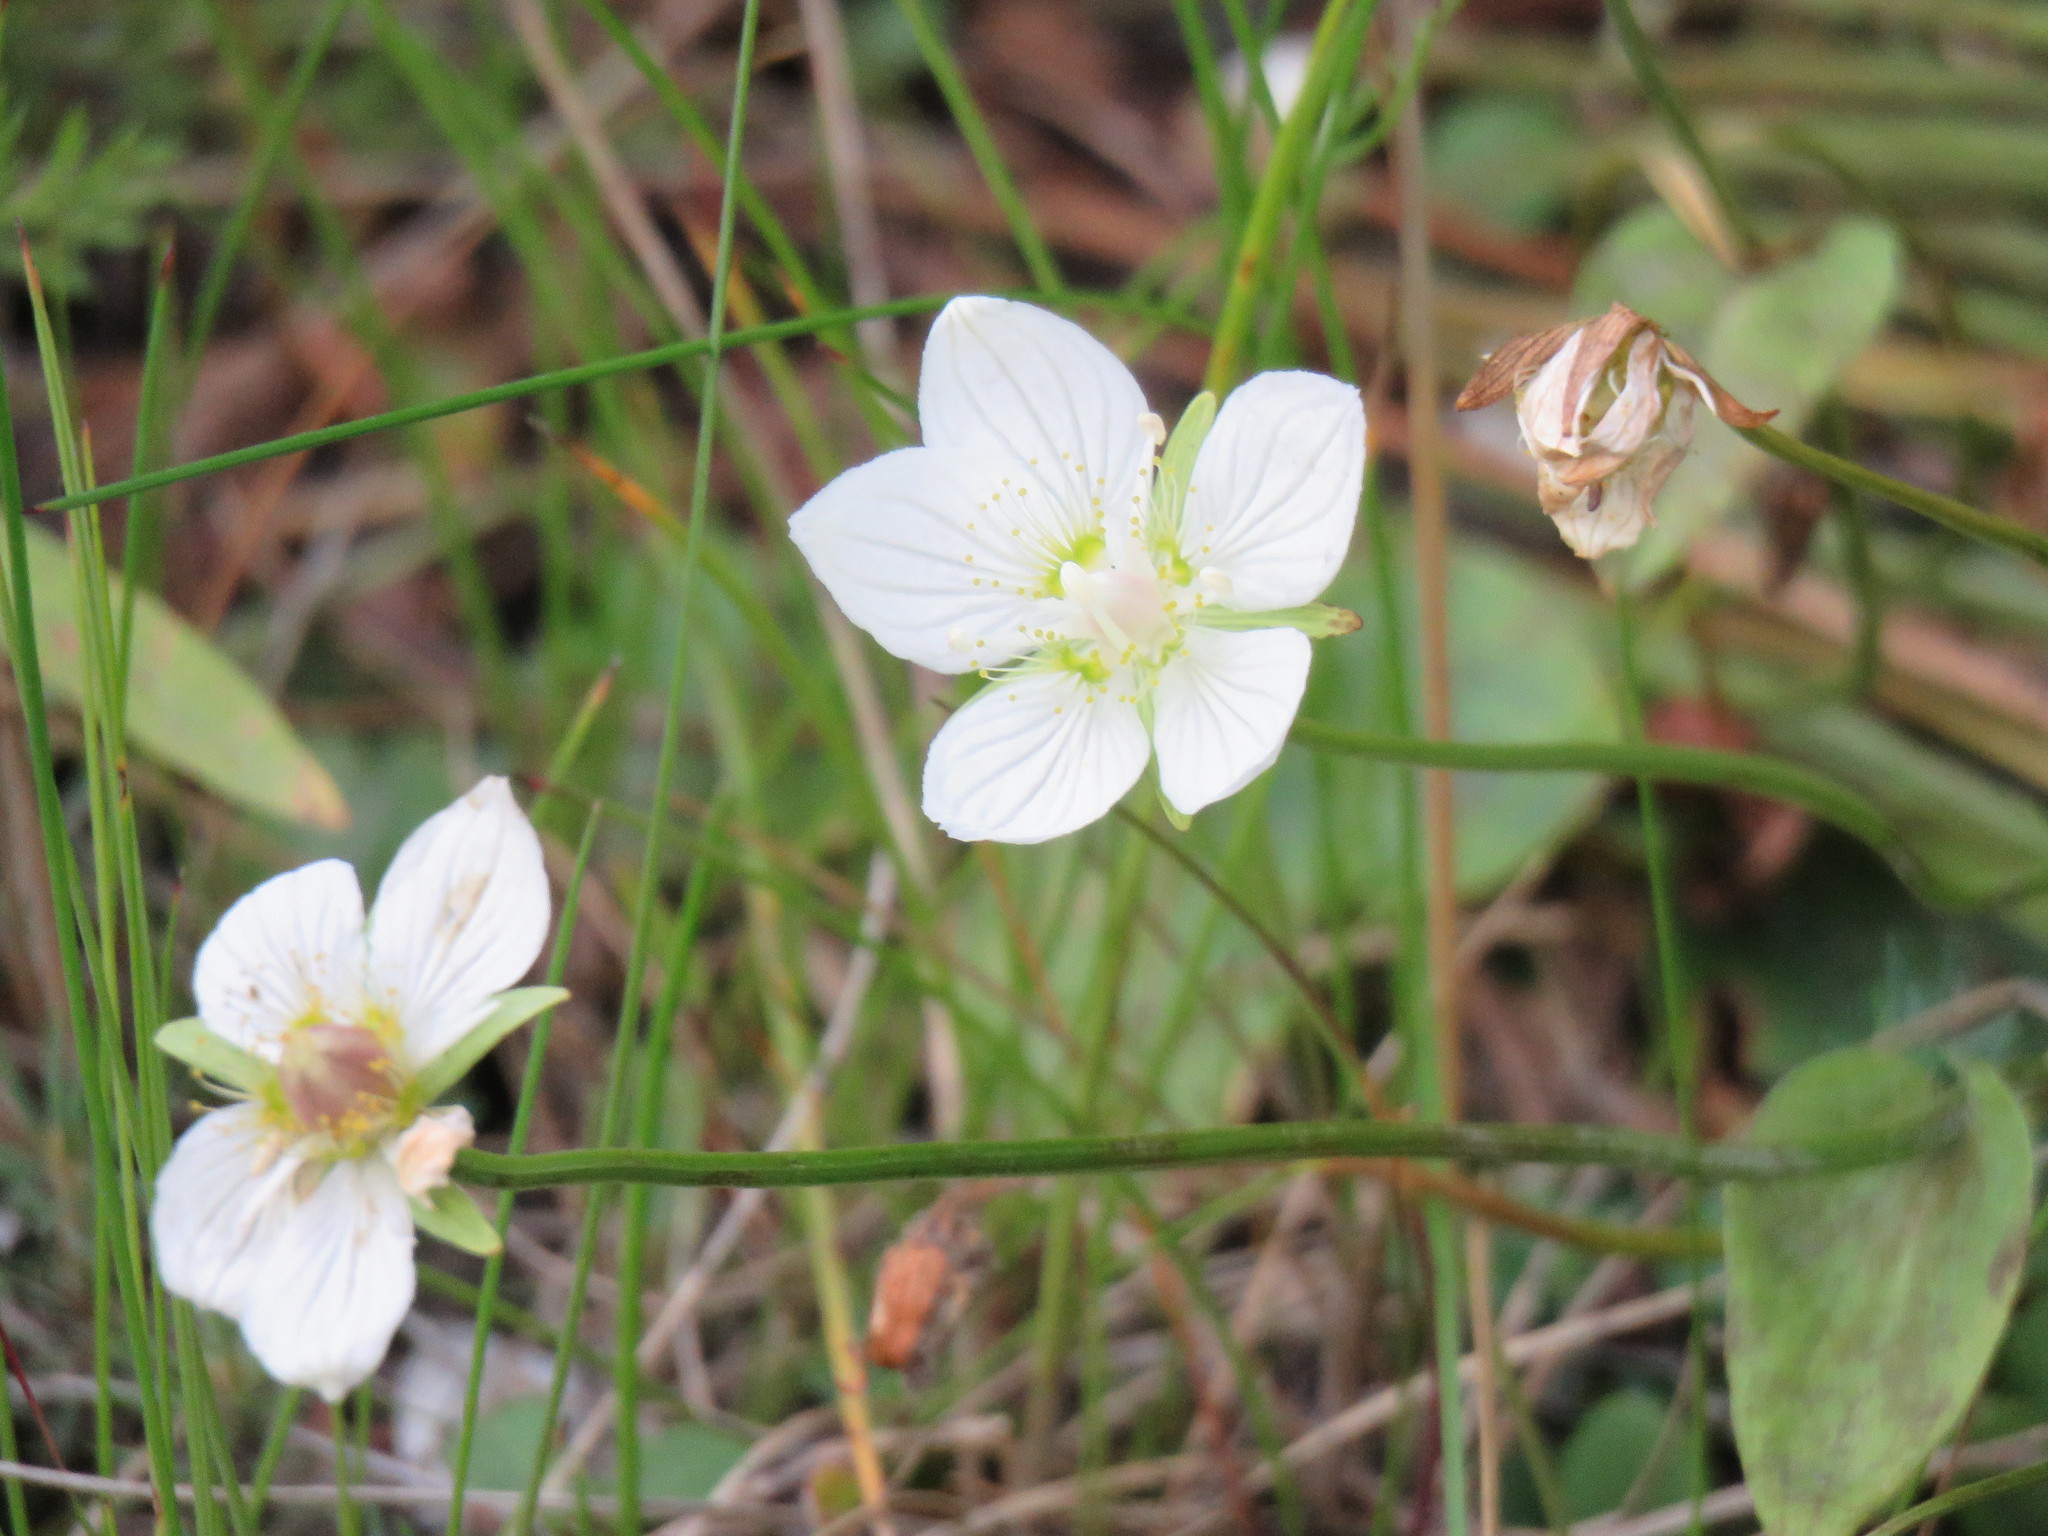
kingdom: Plantae
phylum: Tracheophyta
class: Magnoliopsida
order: Celastrales
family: Parnassiaceae
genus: Parnassia
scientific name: Parnassia palustris
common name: Grass-of-parnassus
